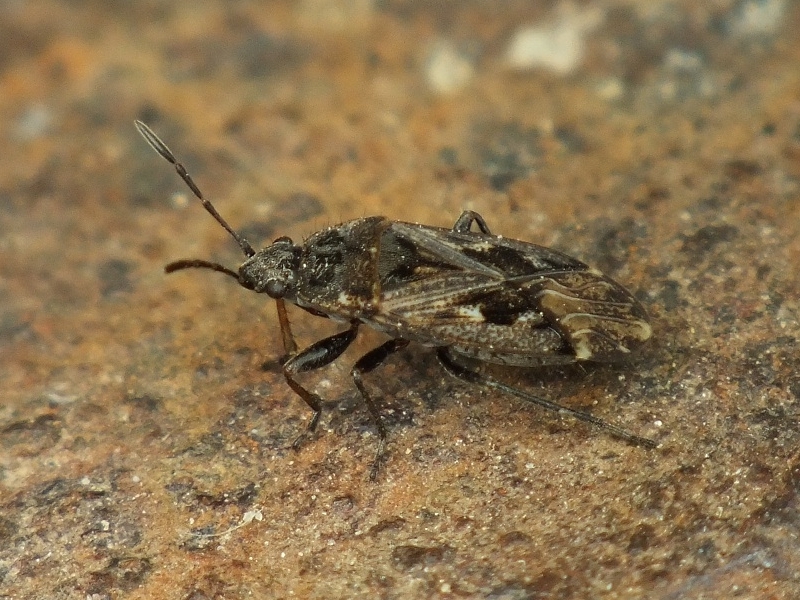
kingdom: Animalia
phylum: Arthropoda
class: Insecta
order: Hemiptera
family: Rhyparochromidae
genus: Sphragisticus
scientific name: Sphragisticus nebulosus
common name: Dirt-colored seed bug
